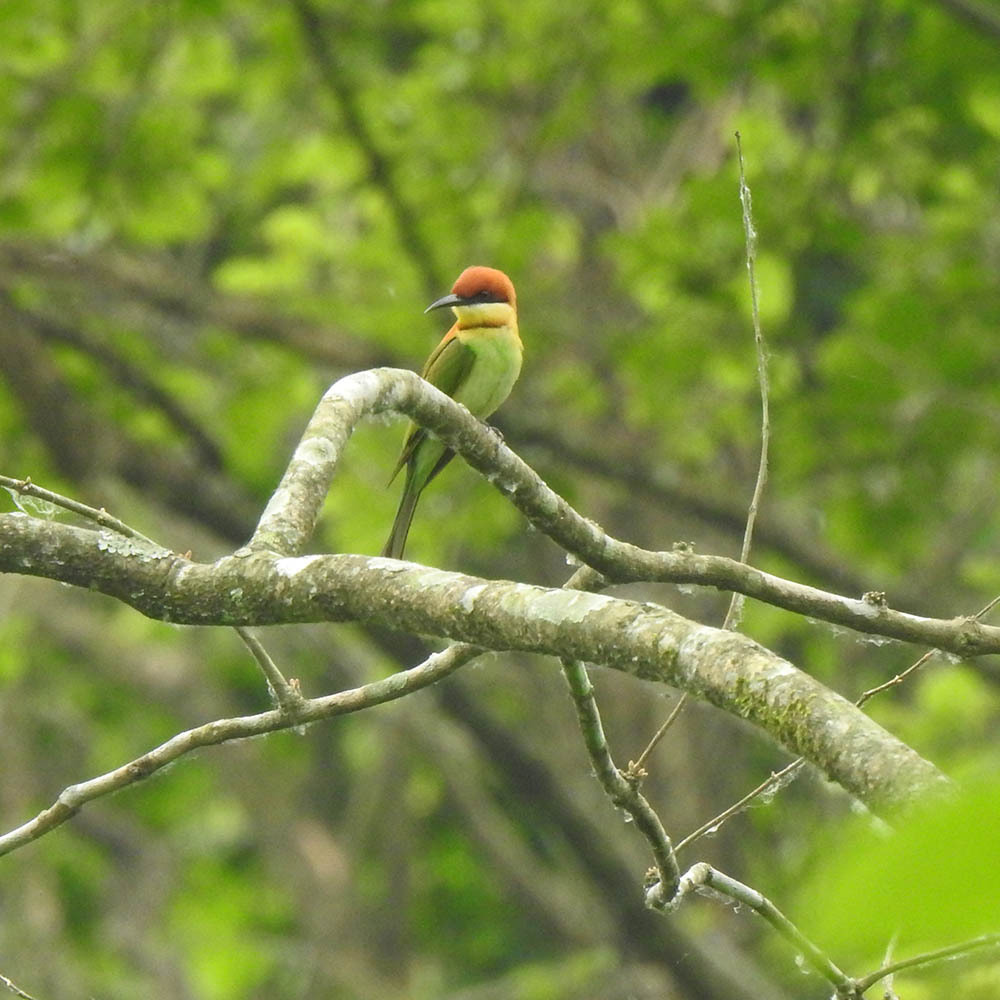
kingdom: Animalia
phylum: Chordata
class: Aves
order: Coraciiformes
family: Meropidae
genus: Merops
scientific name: Merops leschenaulti
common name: Chestnut-headed bee-eater
